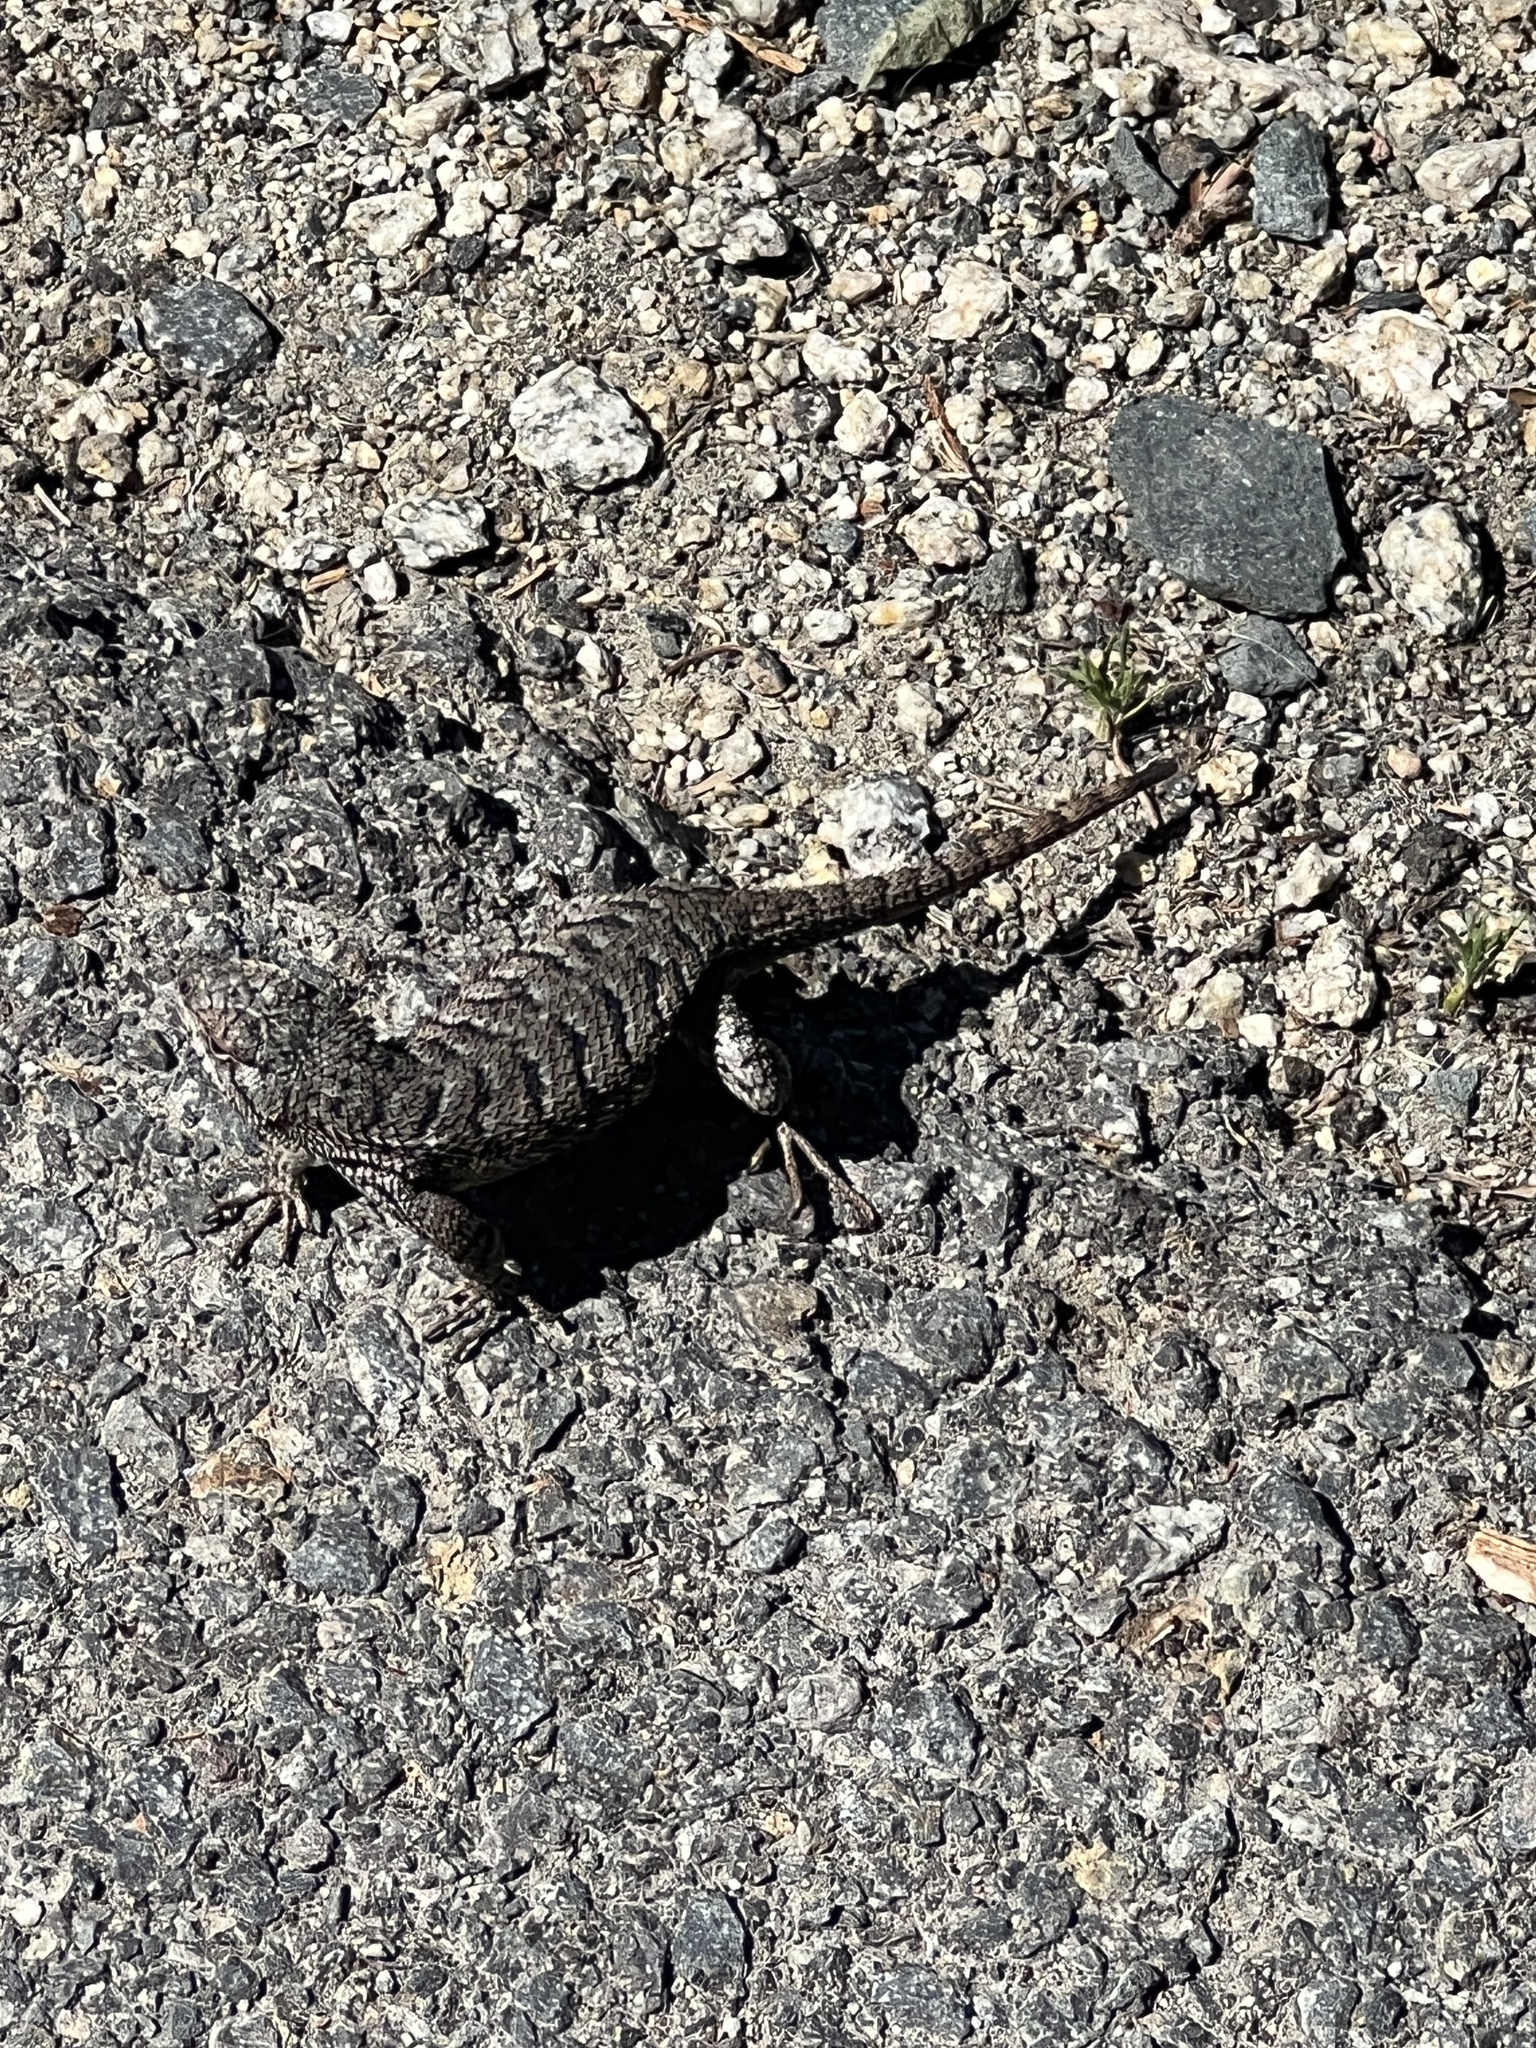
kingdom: Animalia
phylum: Chordata
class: Squamata
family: Phrynosomatidae
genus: Sceloporus
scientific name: Sceloporus occidentalis
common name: Western fence lizard
